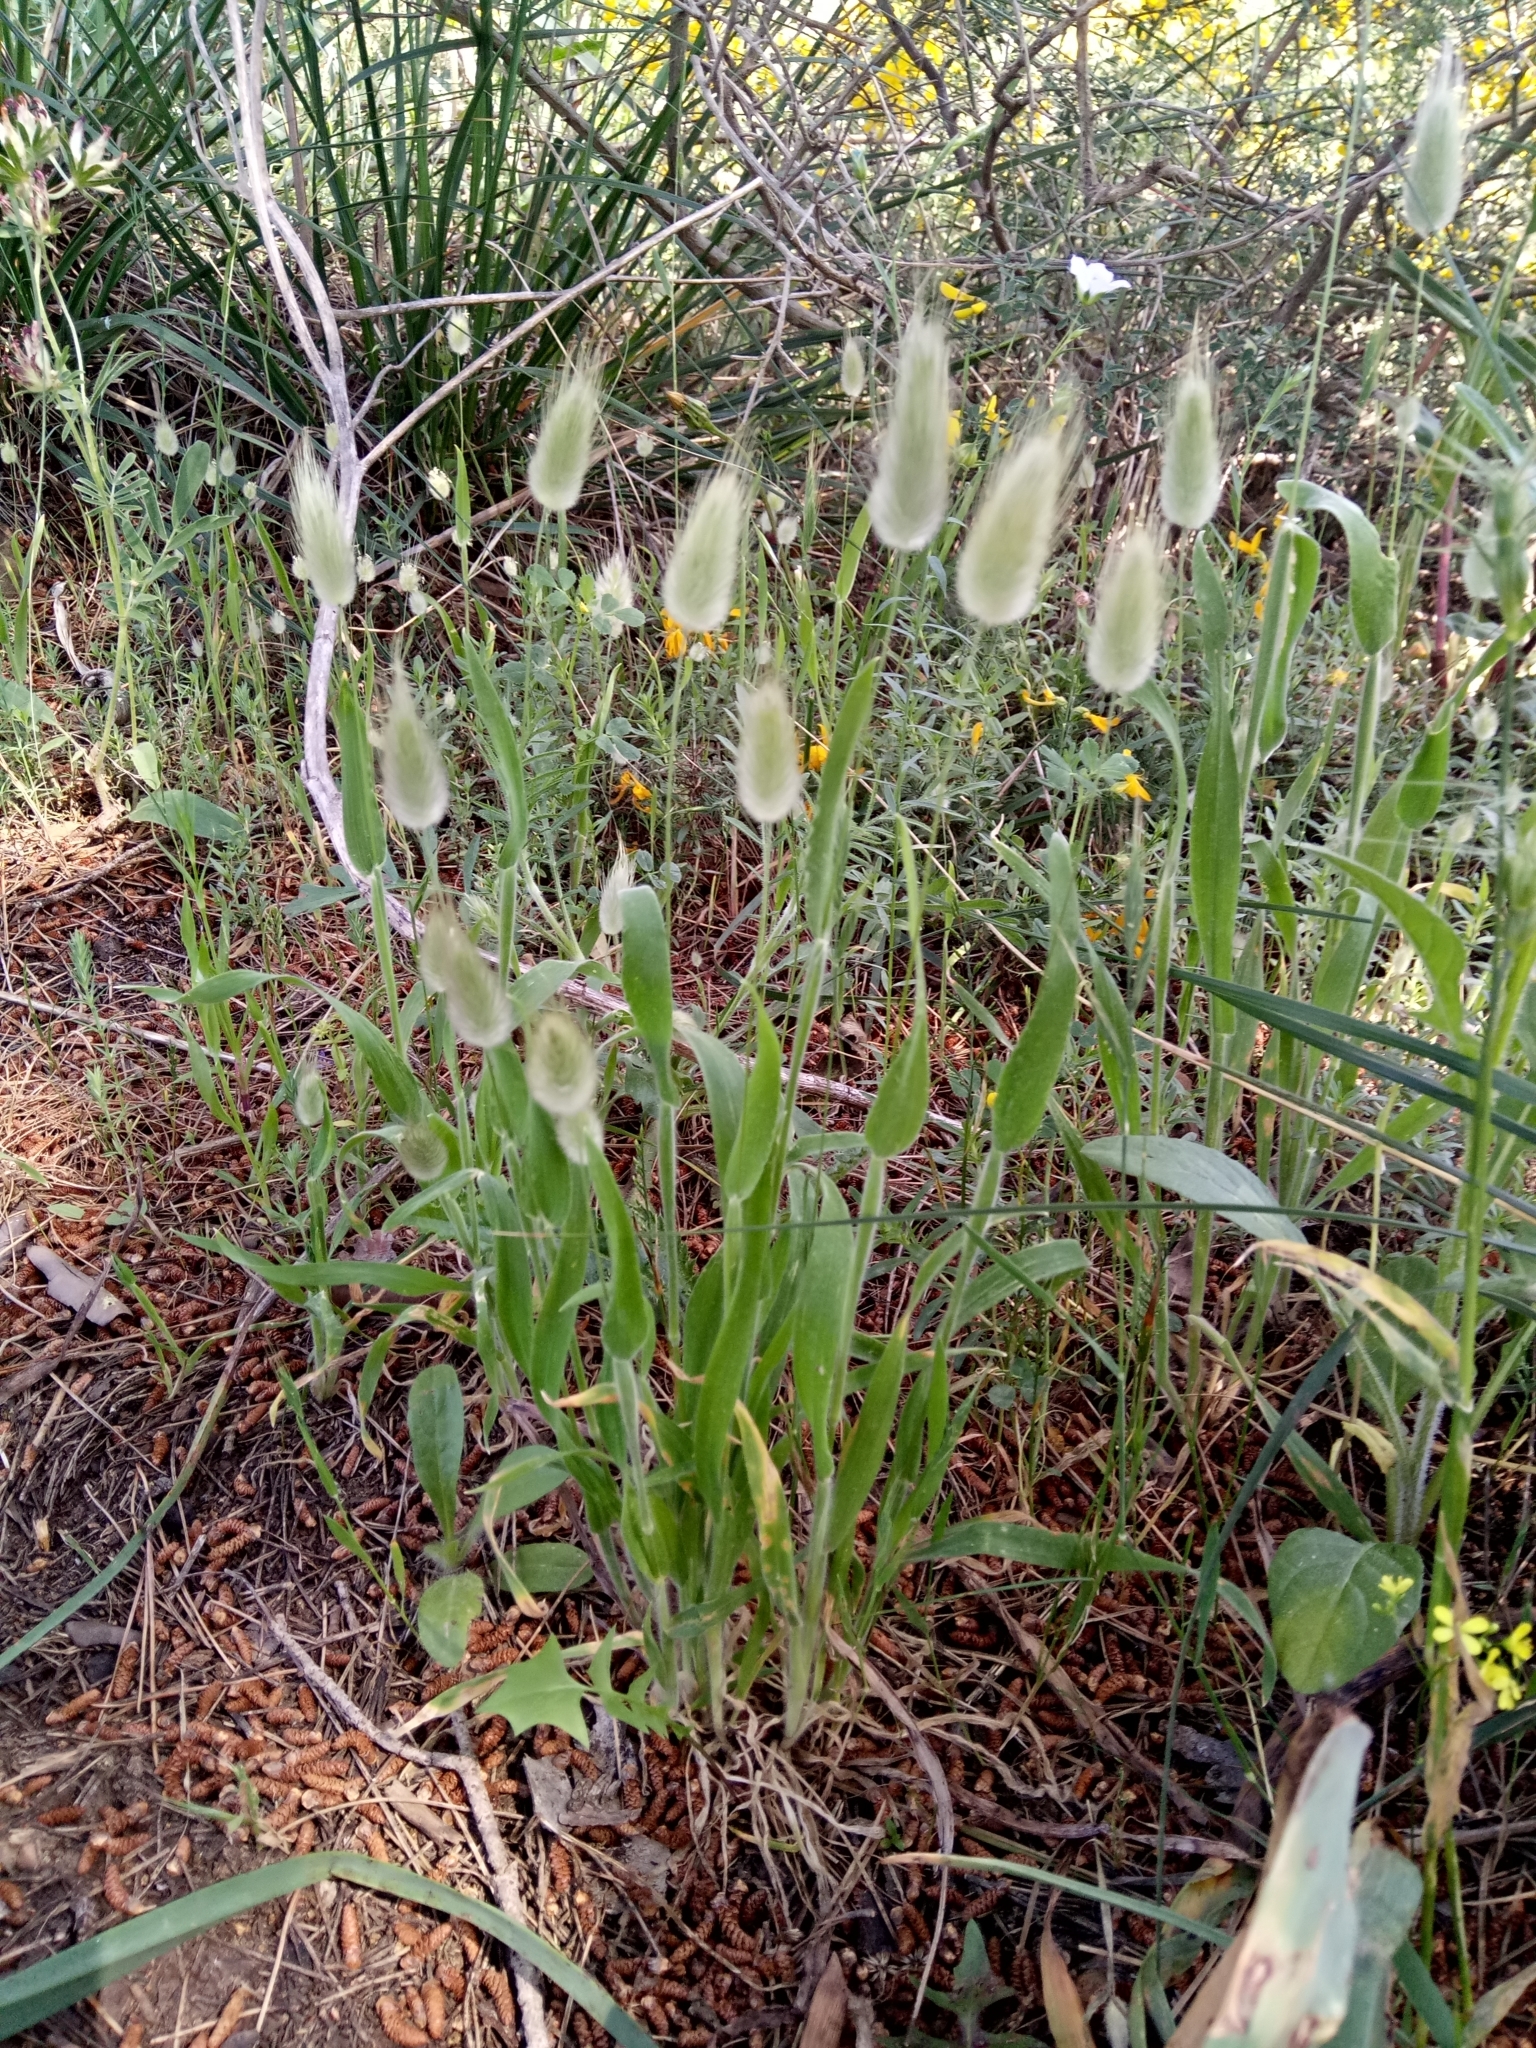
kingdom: Plantae
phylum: Tracheophyta
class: Liliopsida
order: Poales
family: Poaceae
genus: Lagurus
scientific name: Lagurus ovatus
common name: Hare's-tail
